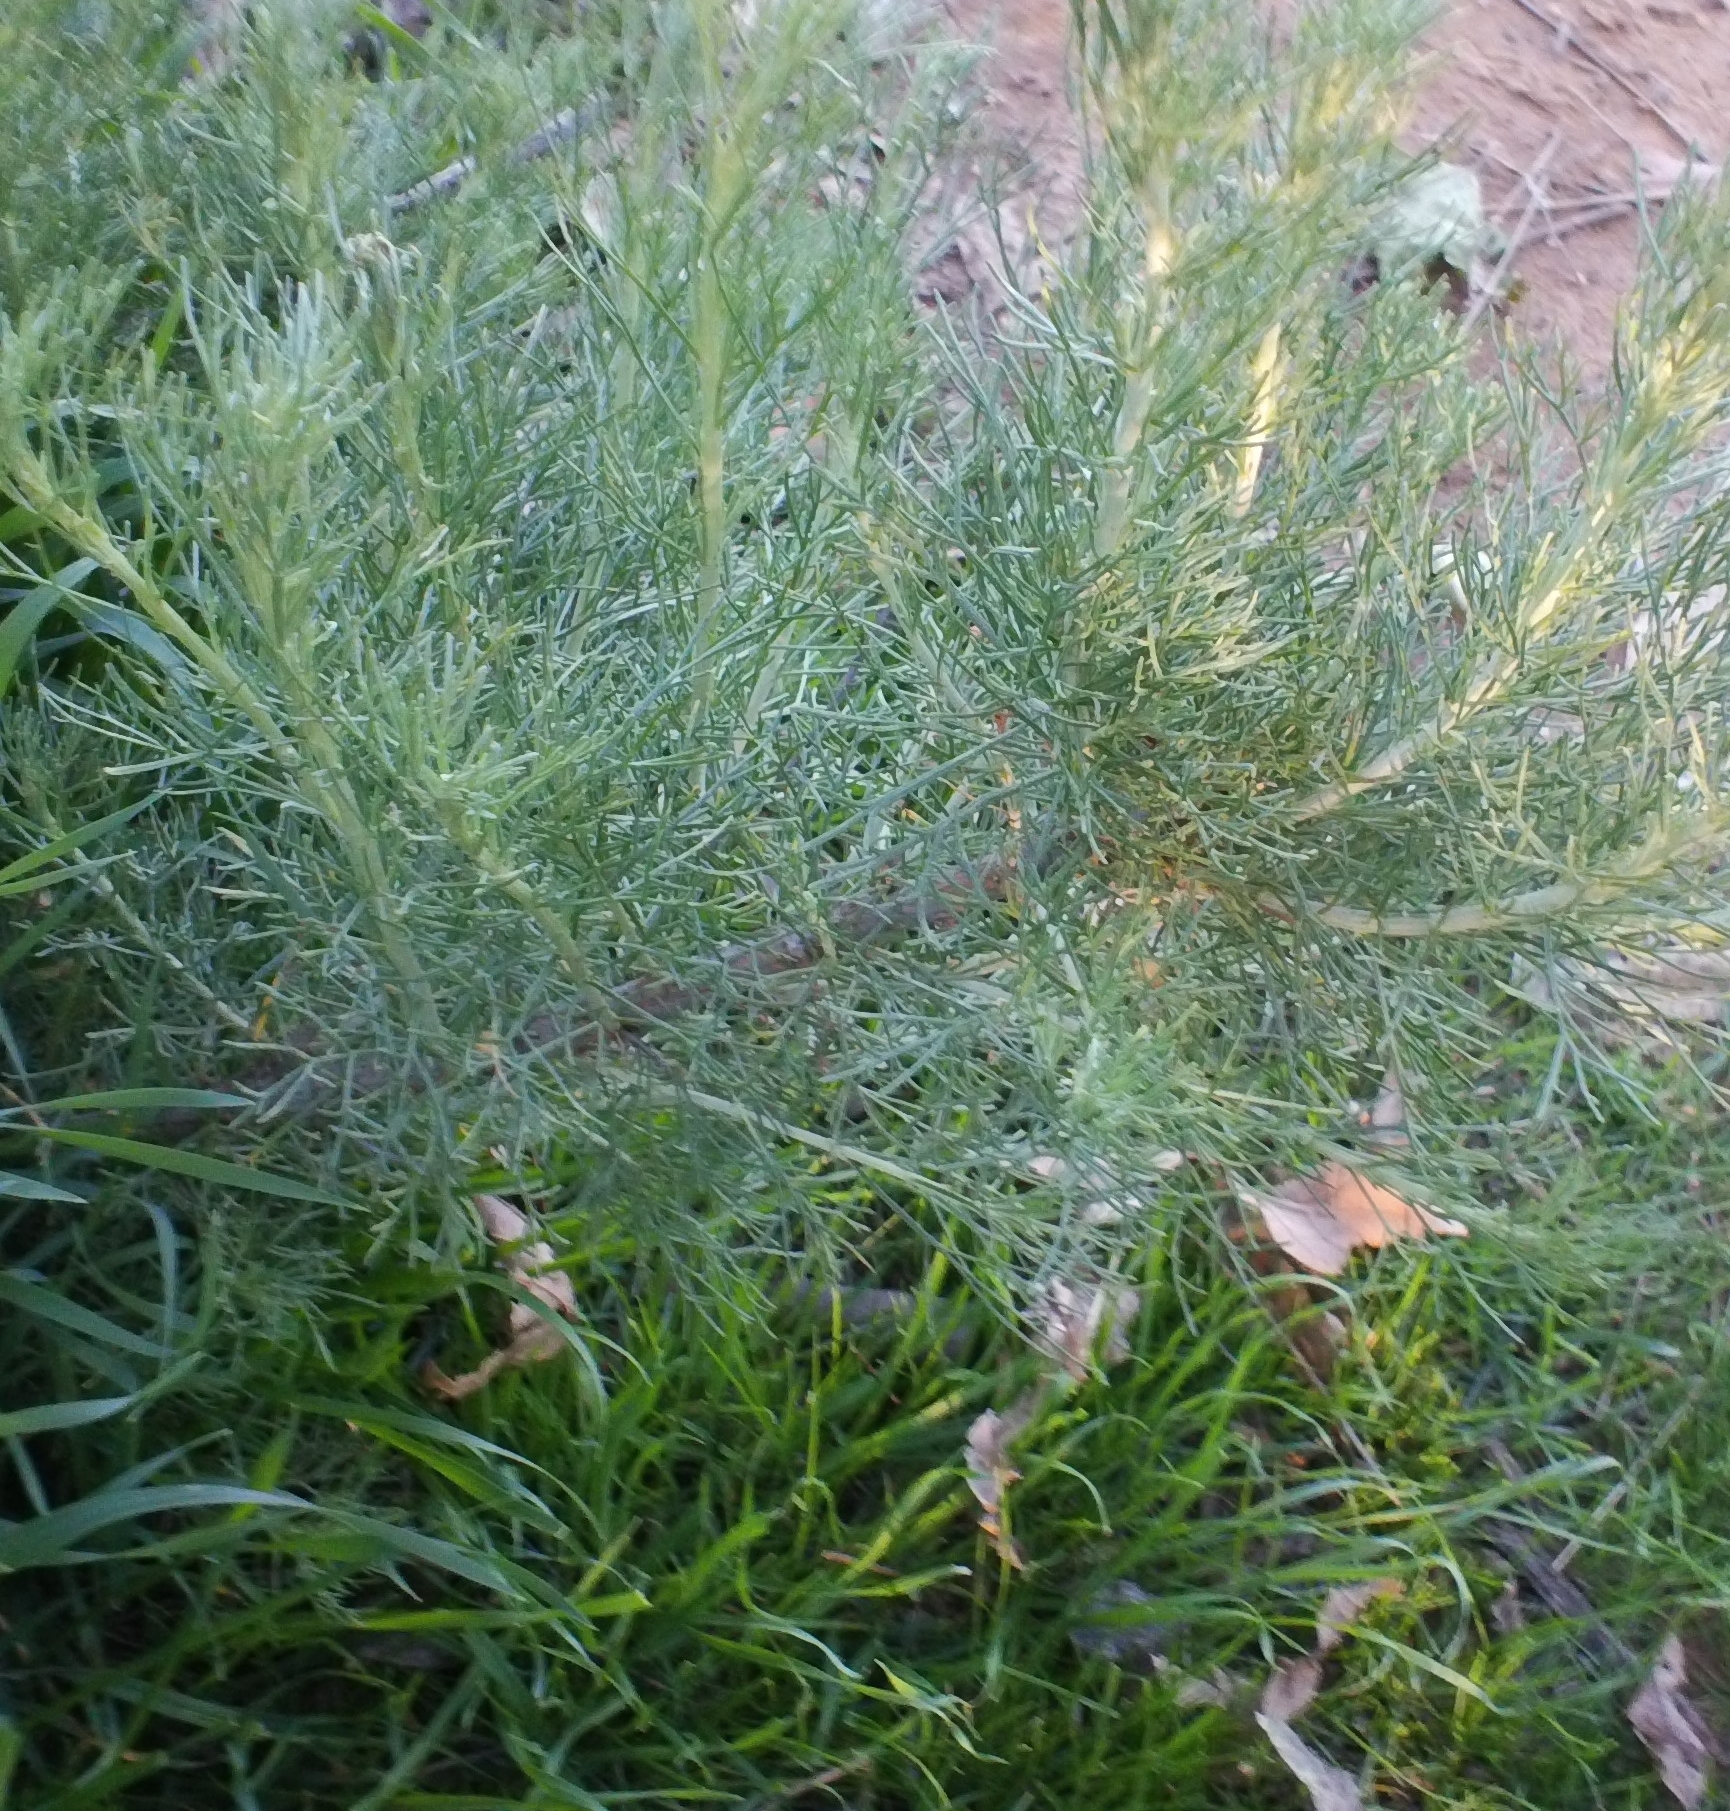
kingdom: Plantae
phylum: Tracheophyta
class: Magnoliopsida
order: Asterales
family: Asteraceae
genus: Artemisia
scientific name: Artemisia californica
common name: California sagebrush
